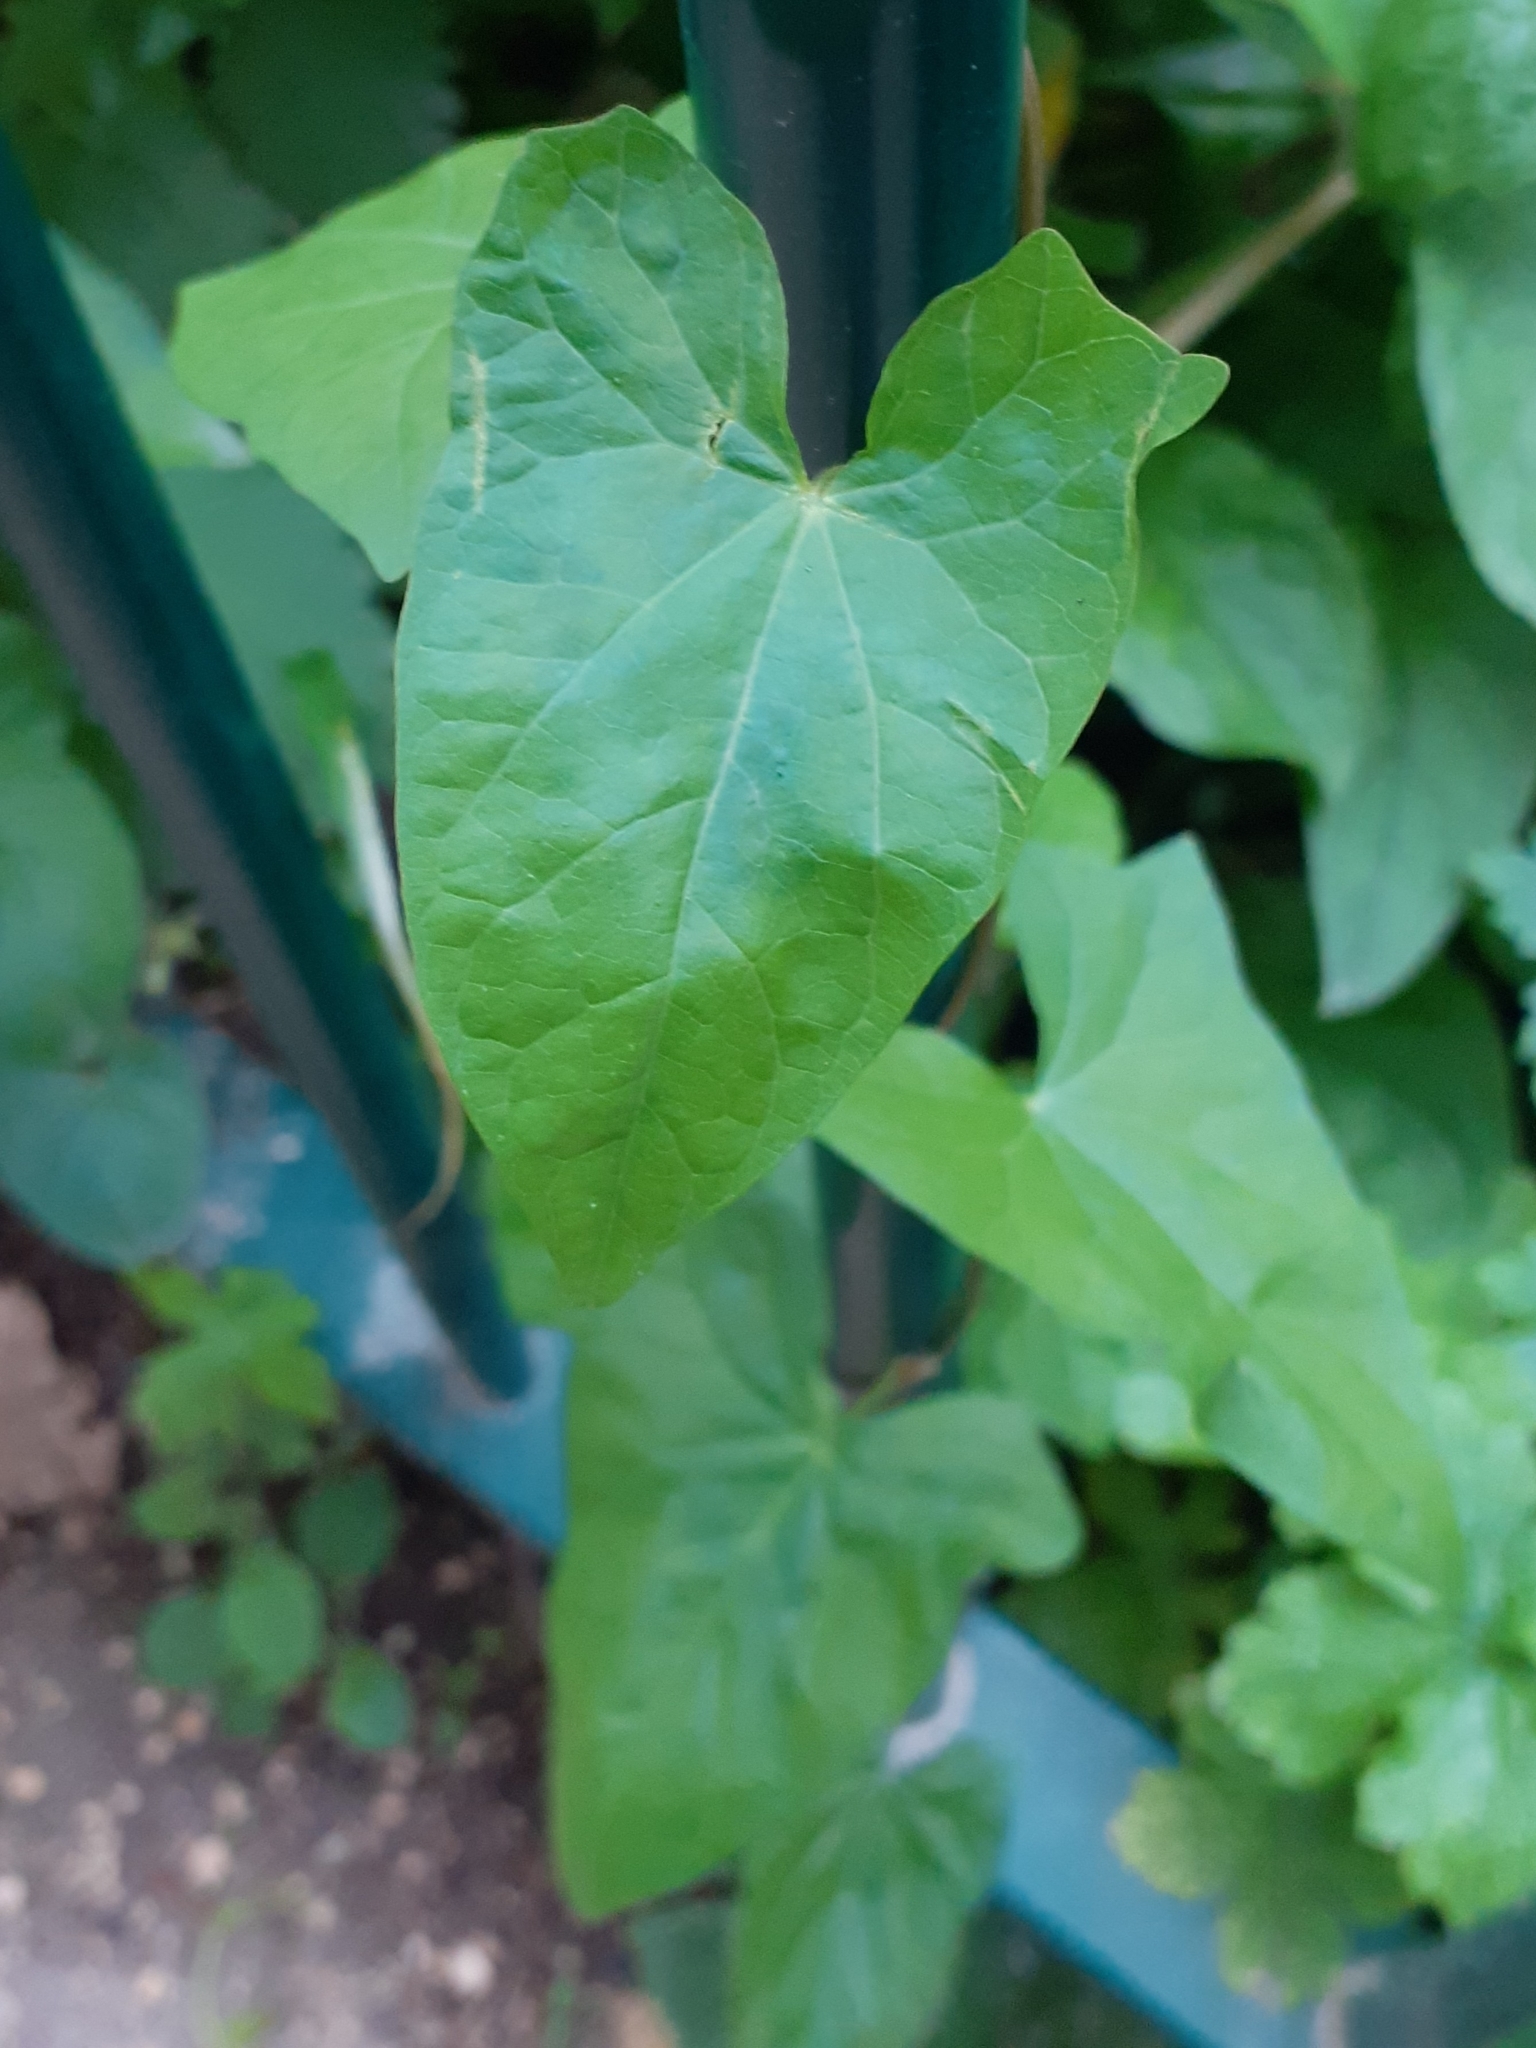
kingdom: Plantae
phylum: Tracheophyta
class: Magnoliopsida
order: Solanales
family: Convolvulaceae
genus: Calystegia
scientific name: Calystegia
